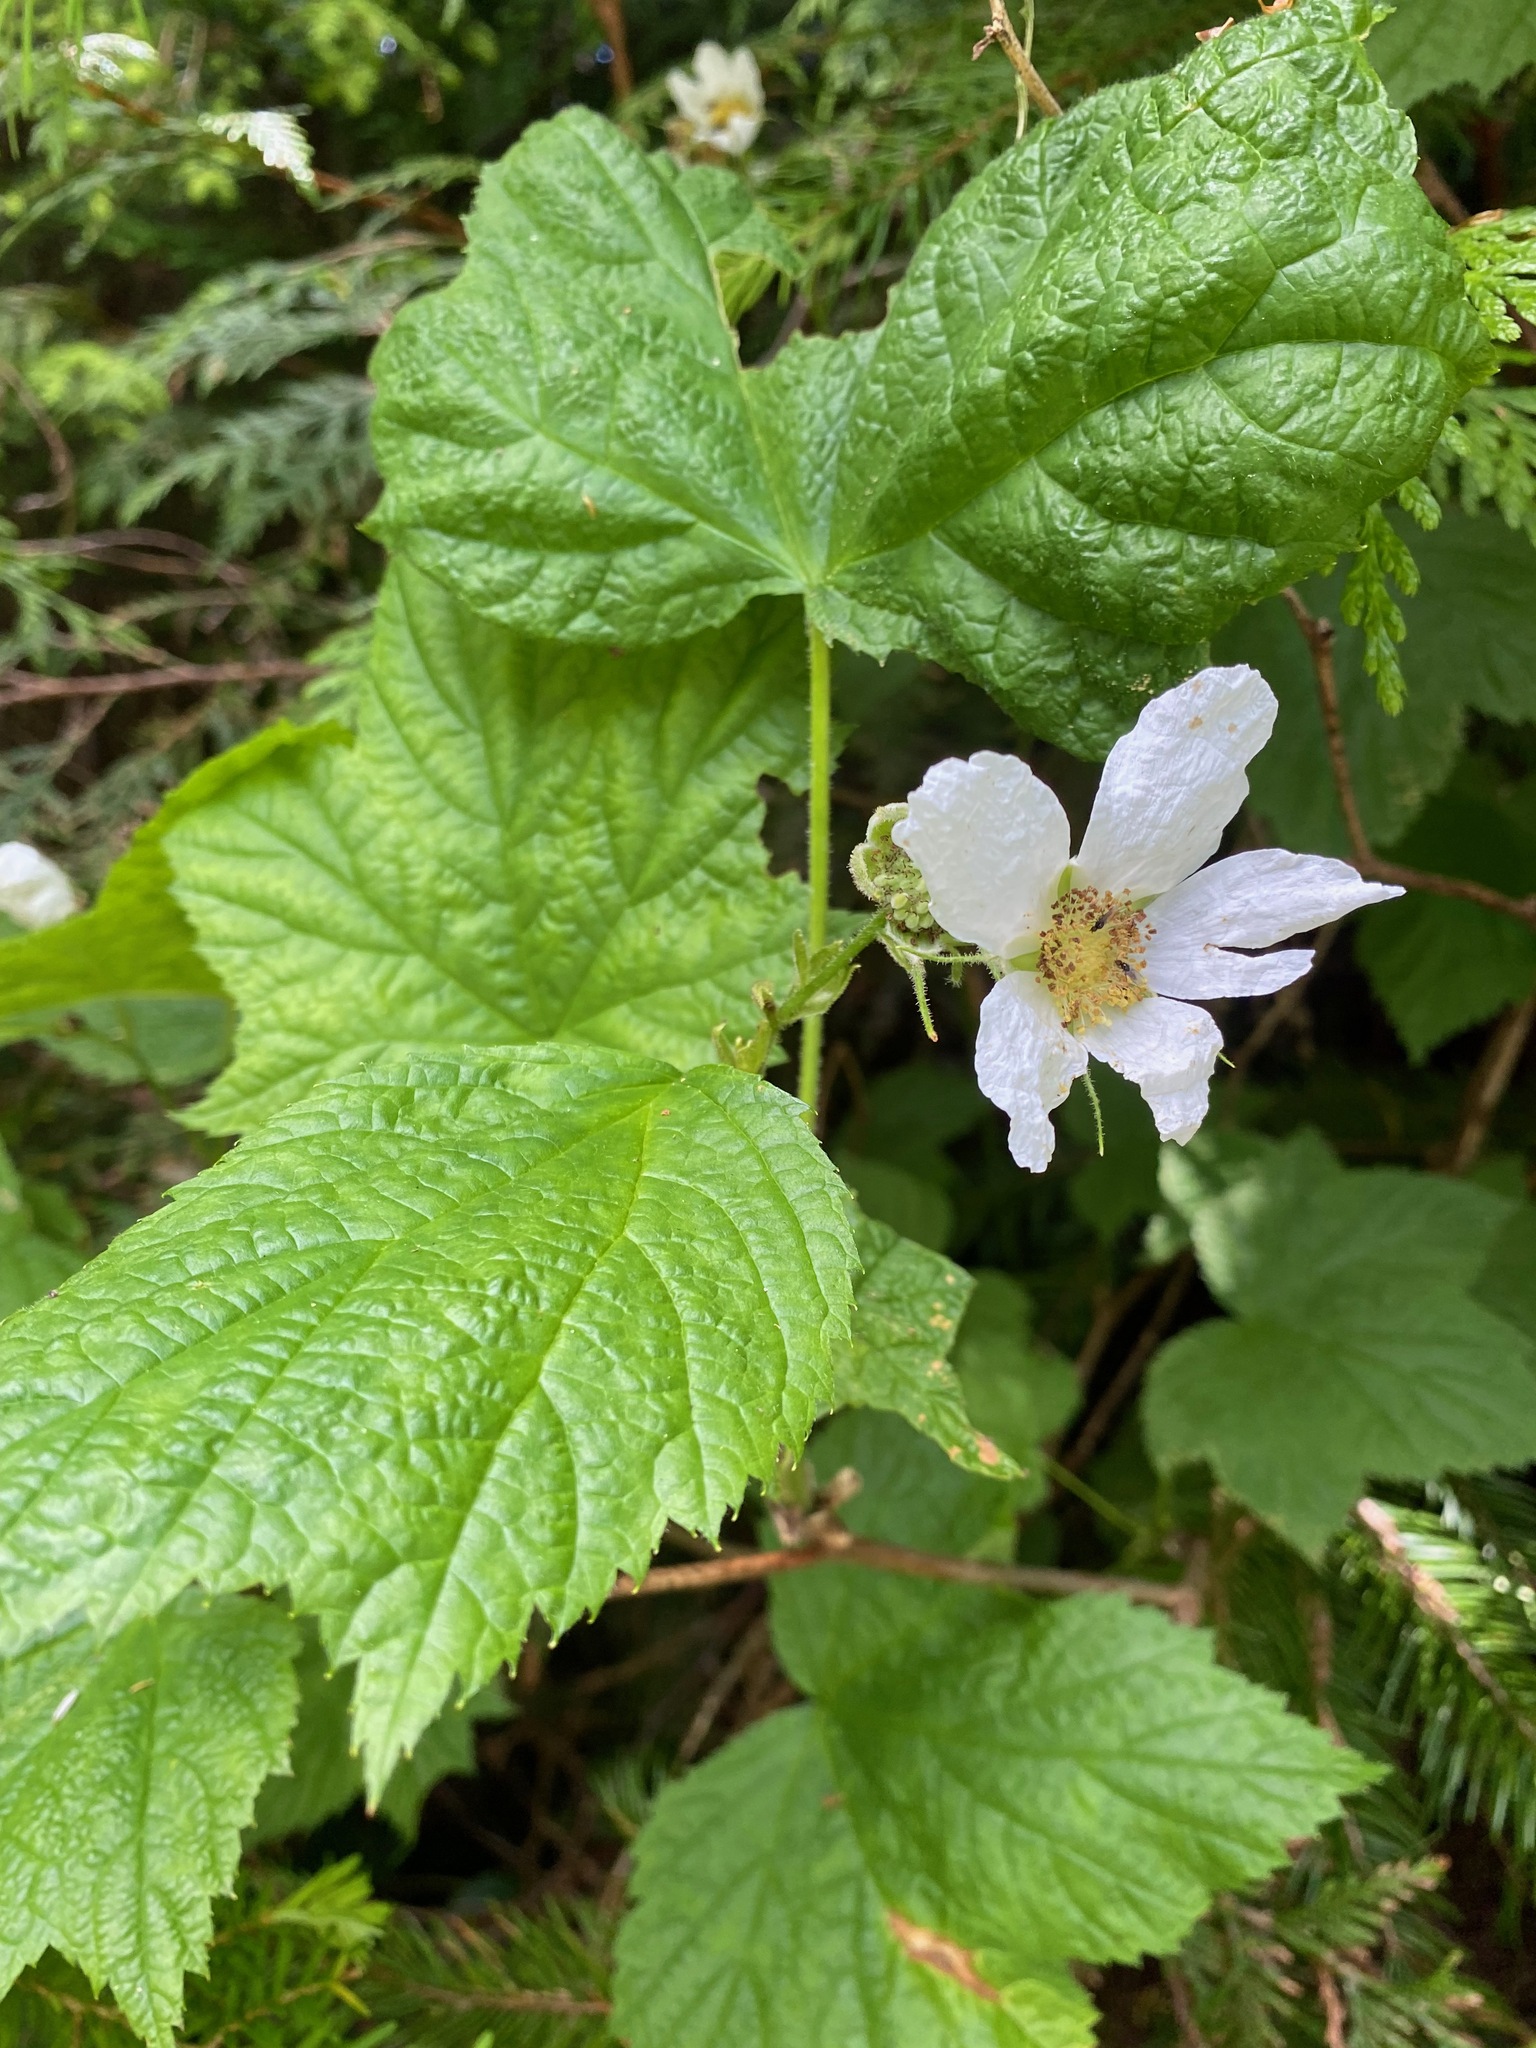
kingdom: Plantae
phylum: Tracheophyta
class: Magnoliopsida
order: Rosales
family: Rosaceae
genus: Rubus
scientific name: Rubus parviflorus
